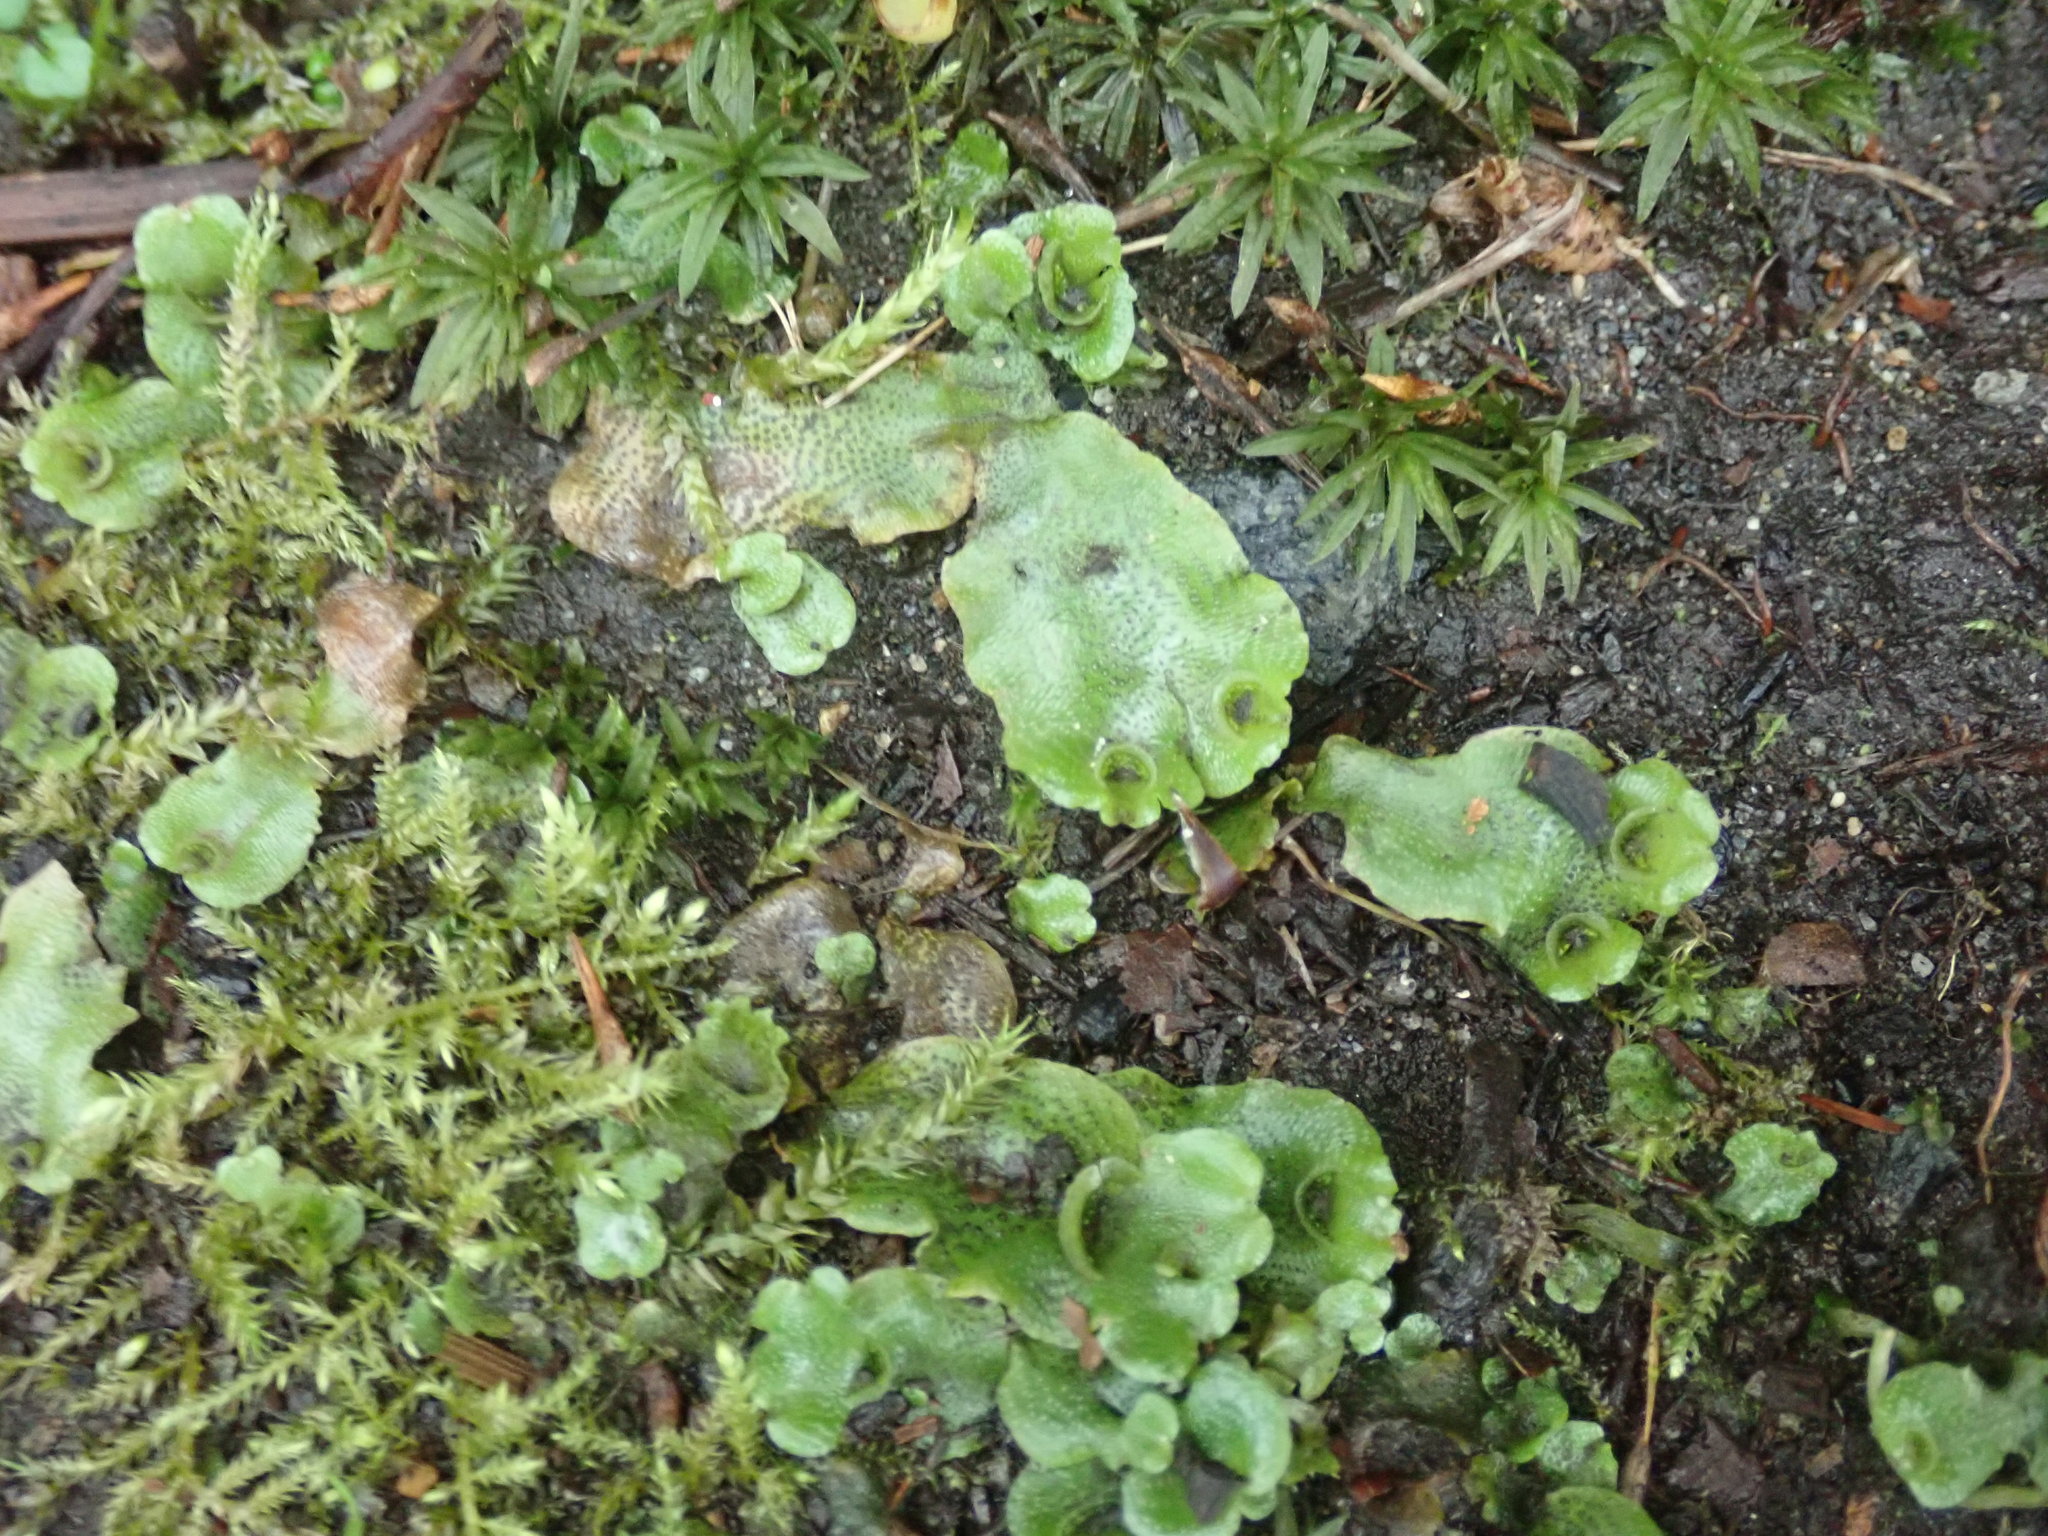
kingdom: Plantae
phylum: Marchantiophyta
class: Marchantiopsida
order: Lunulariales
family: Lunulariaceae
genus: Lunularia
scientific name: Lunularia cruciata
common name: Crescent-cup liverwort
